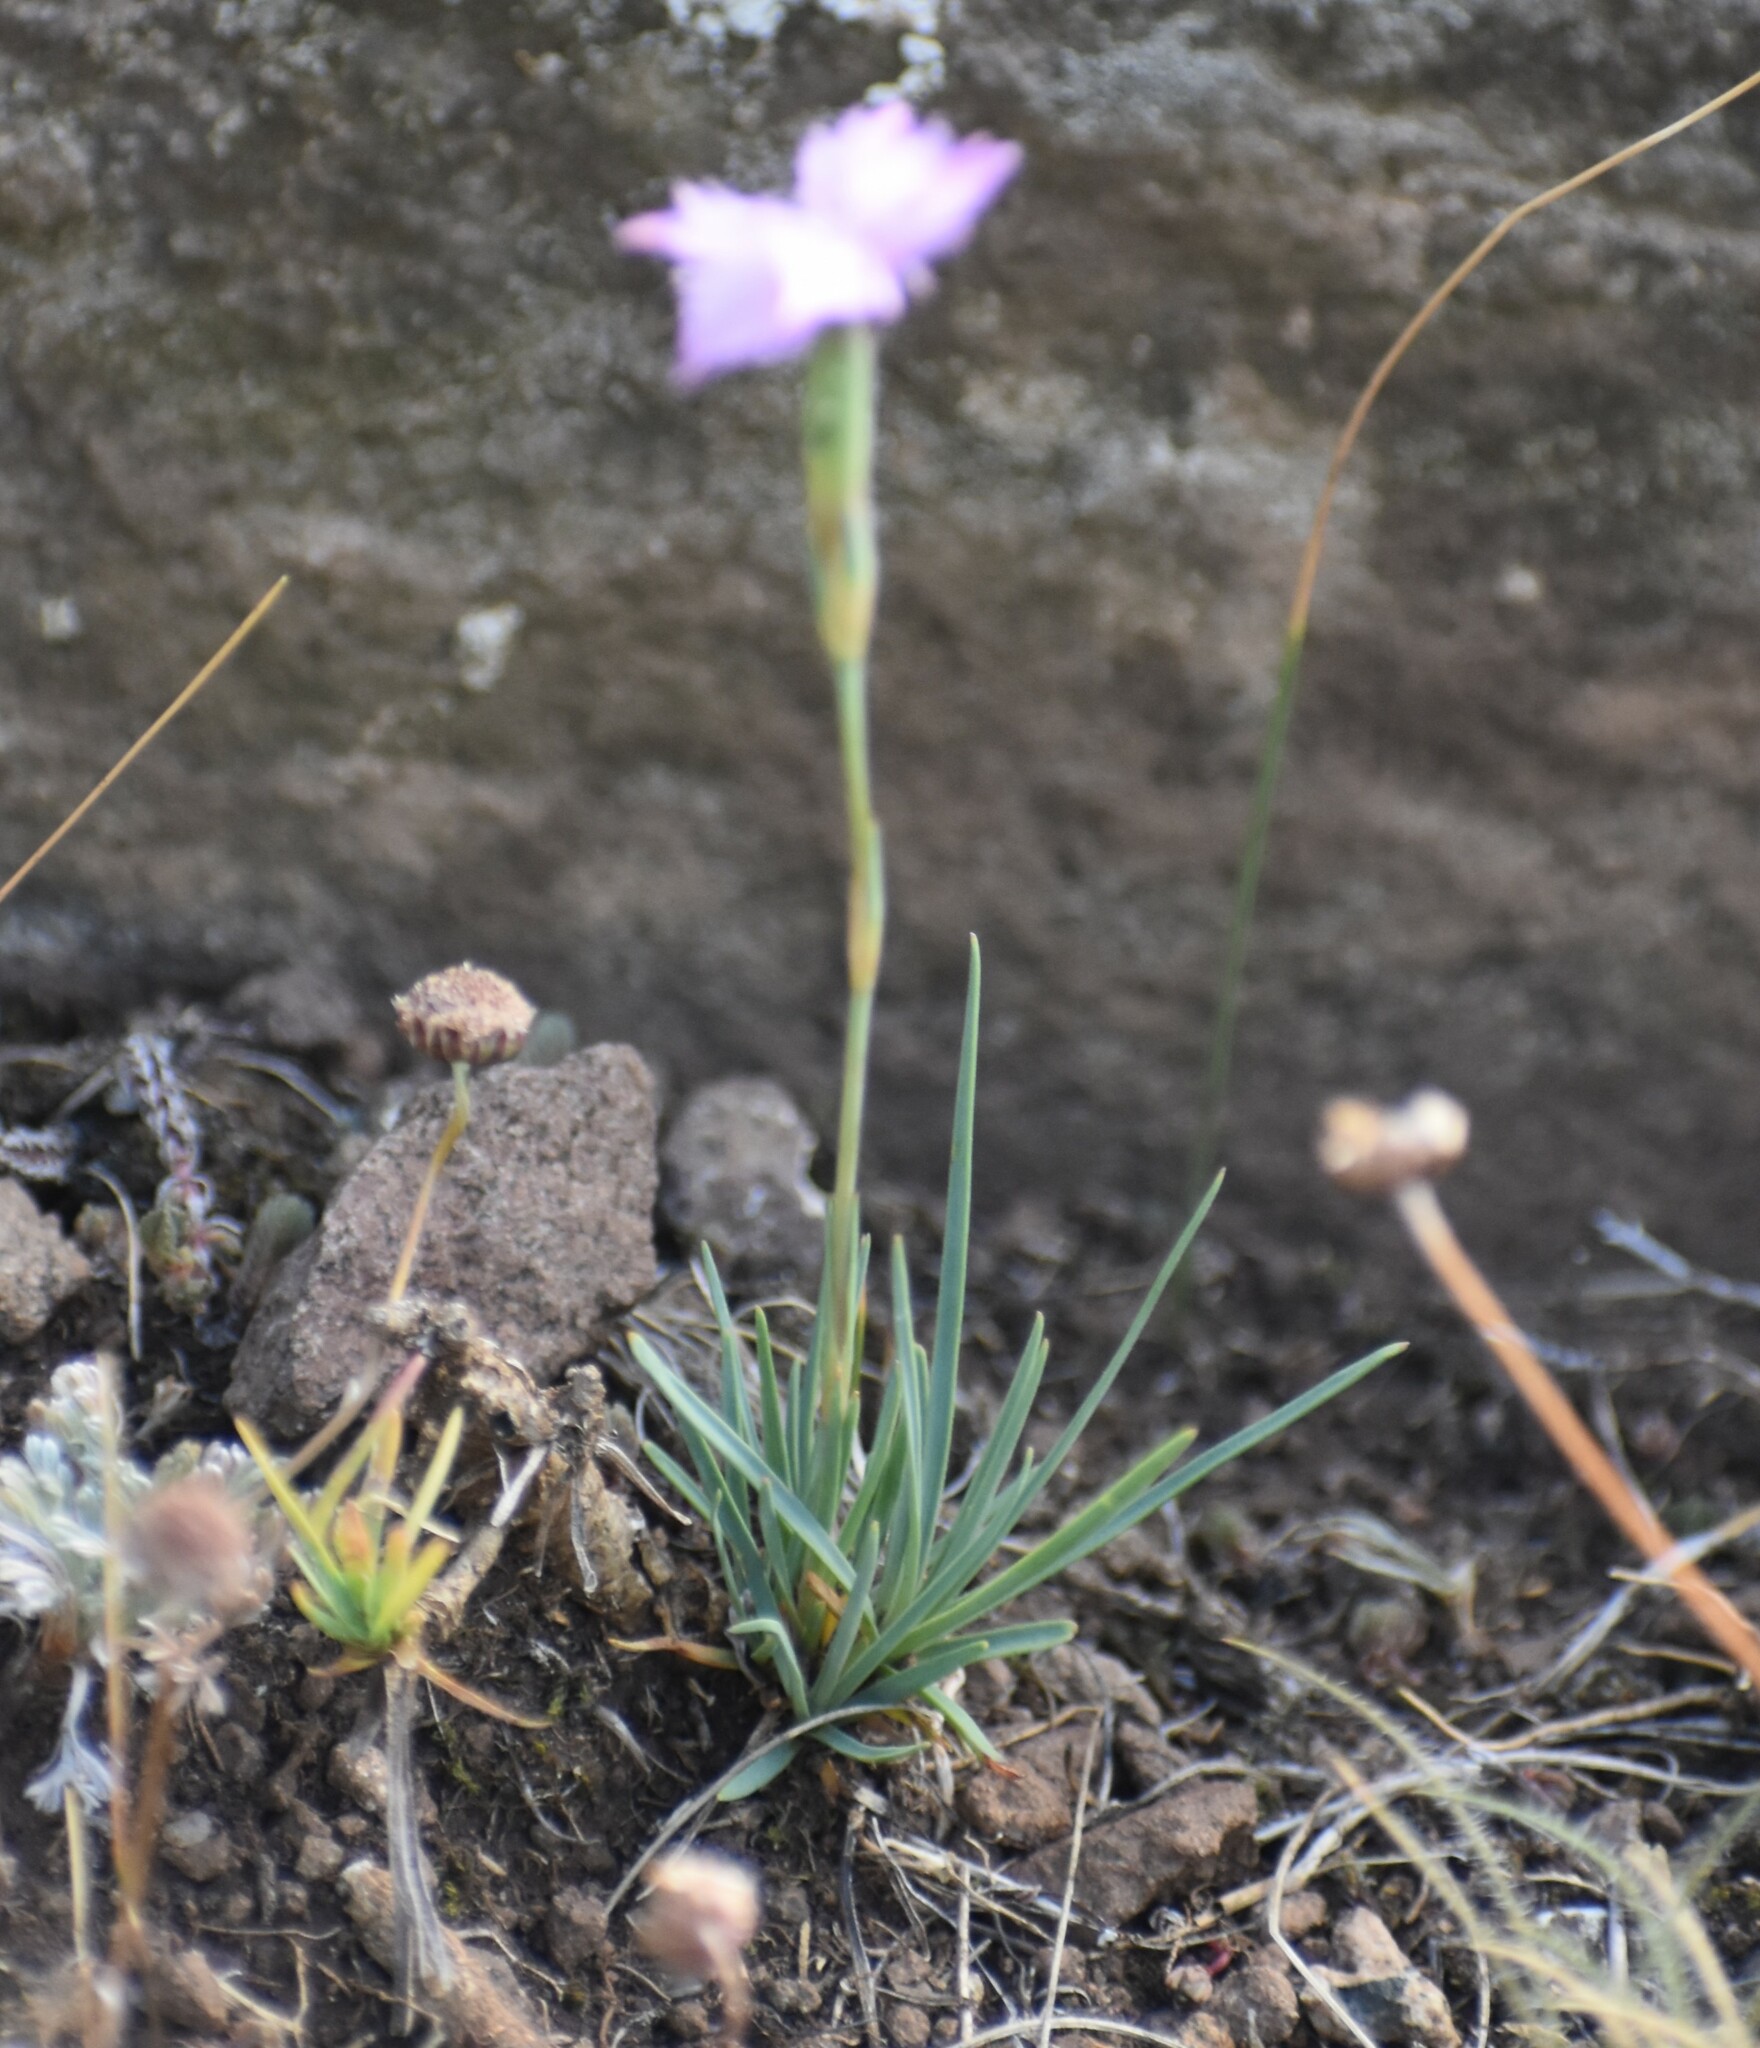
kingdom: Plantae
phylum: Tracheophyta
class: Magnoliopsida
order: Caryophyllales
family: Caryophyllaceae
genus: Dianthus
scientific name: Dianthus basuticus
